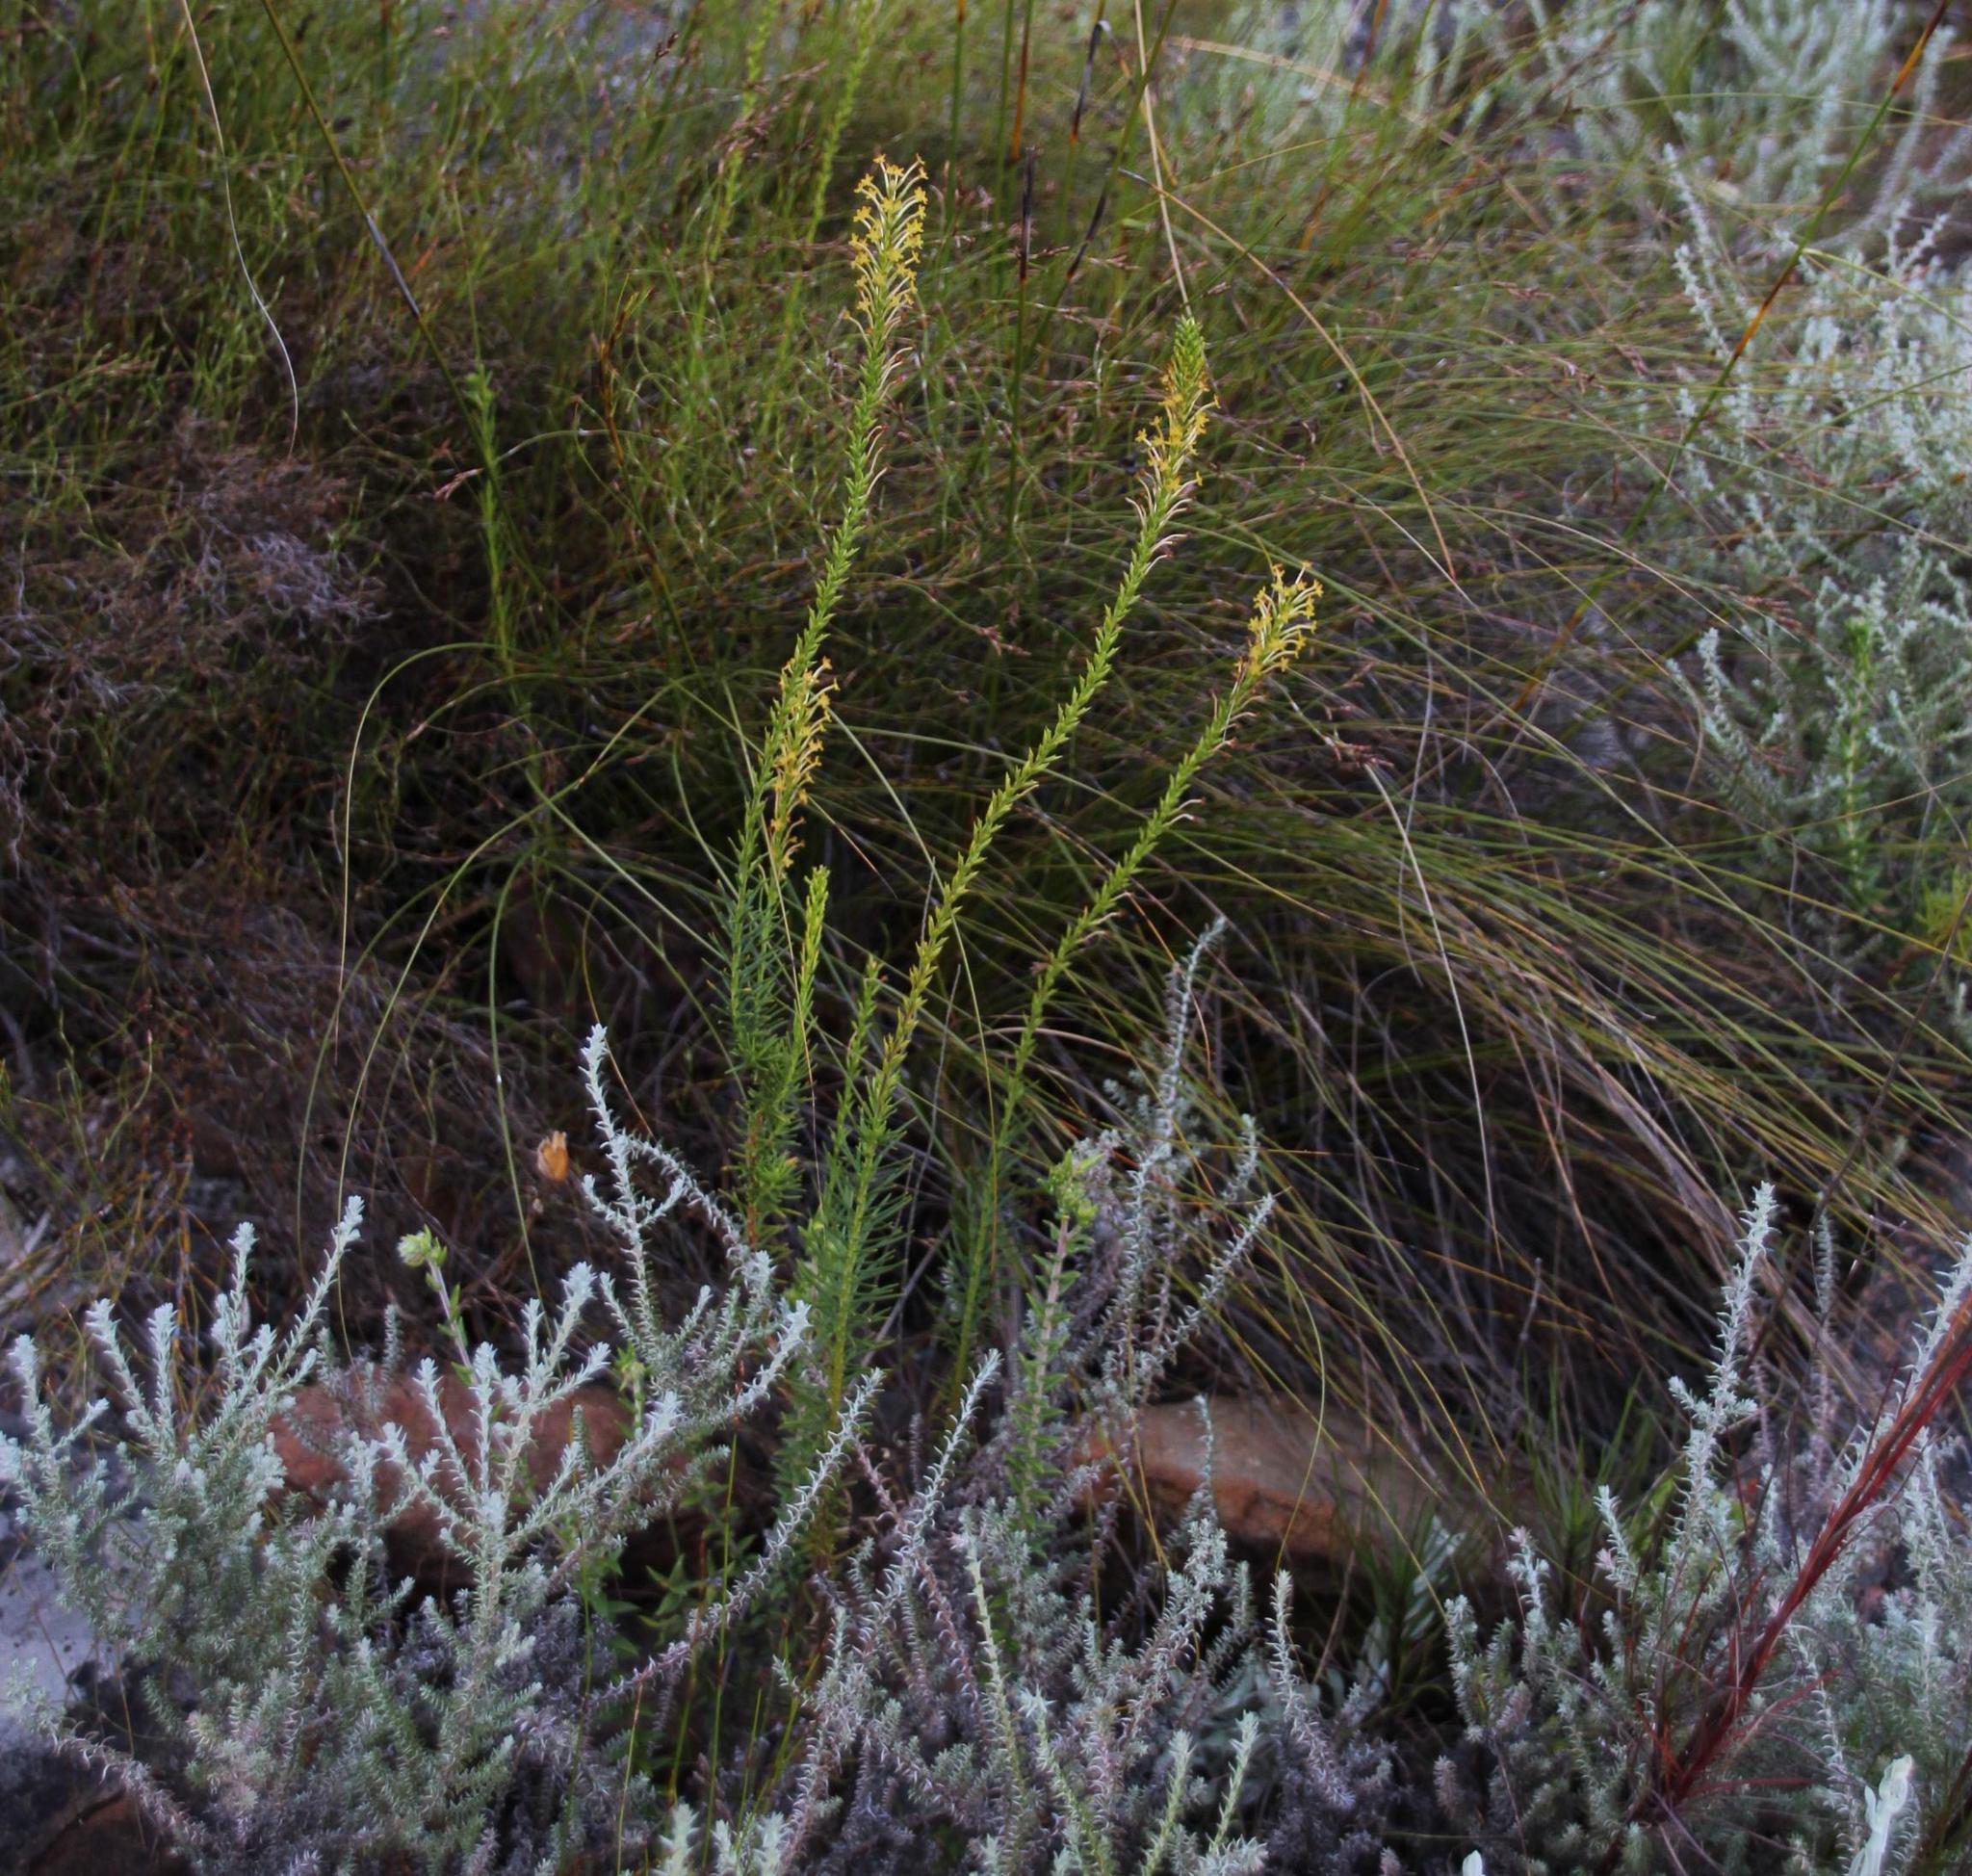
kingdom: Plantae
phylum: Tracheophyta
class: Magnoliopsida
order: Lamiales
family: Scrophulariaceae
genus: Microdon
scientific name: Microdon dubius
